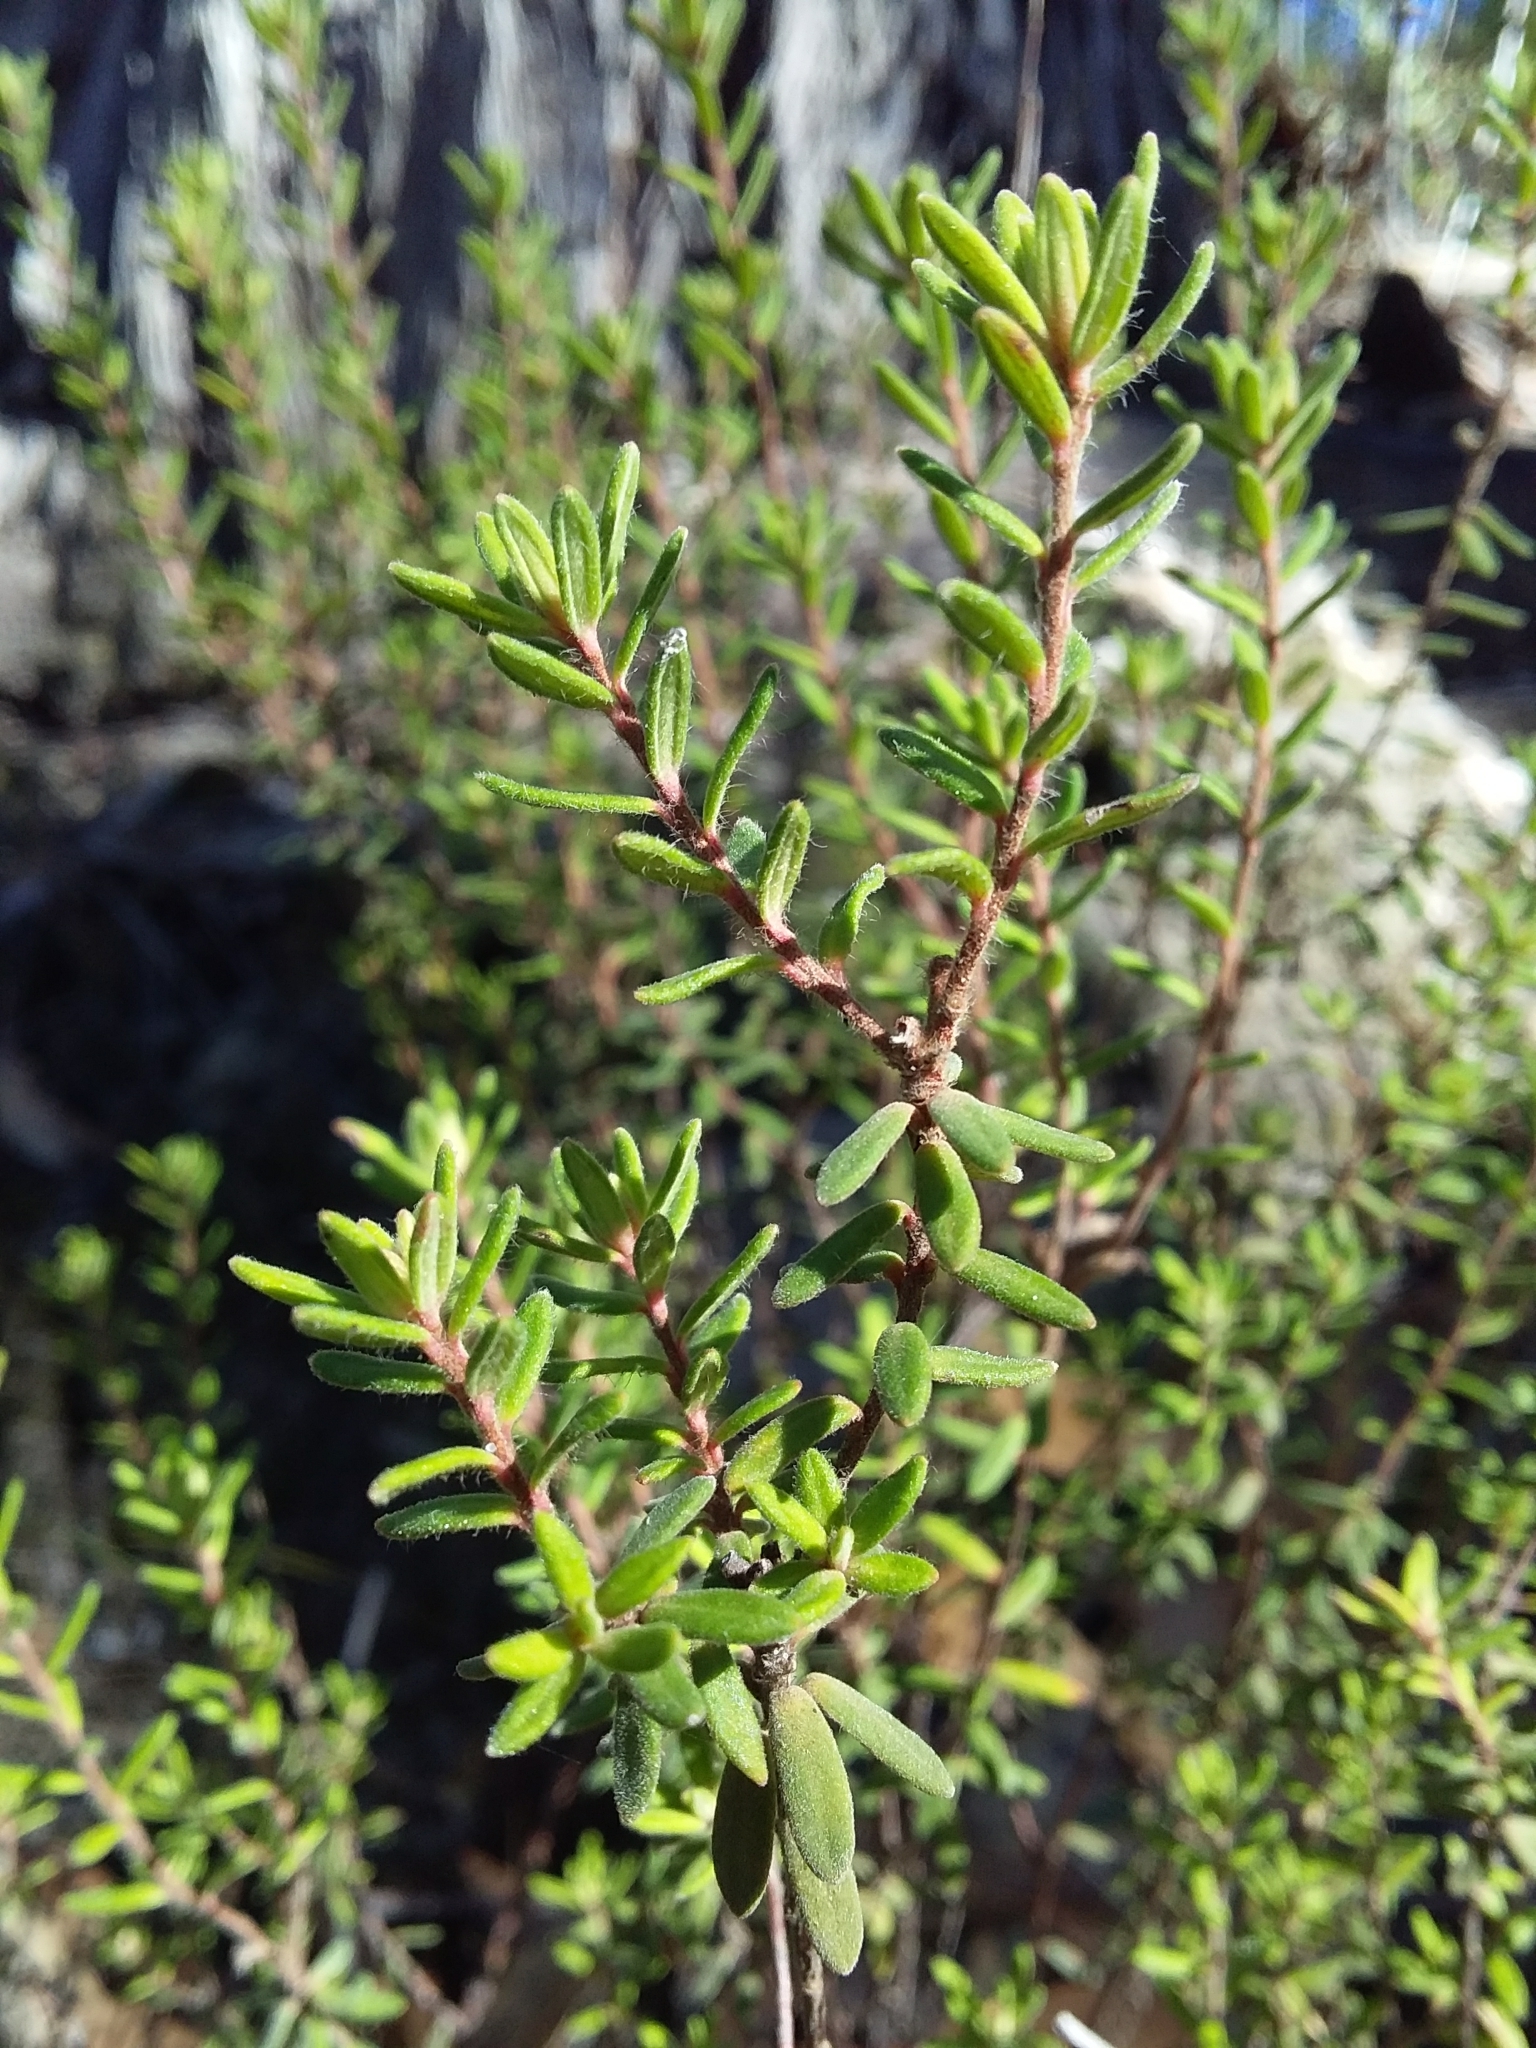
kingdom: Plantae
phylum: Tracheophyta
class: Magnoliopsida
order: Dilleniales
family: Dilleniaceae
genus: Hibbertia
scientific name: Hibbertia crinita
